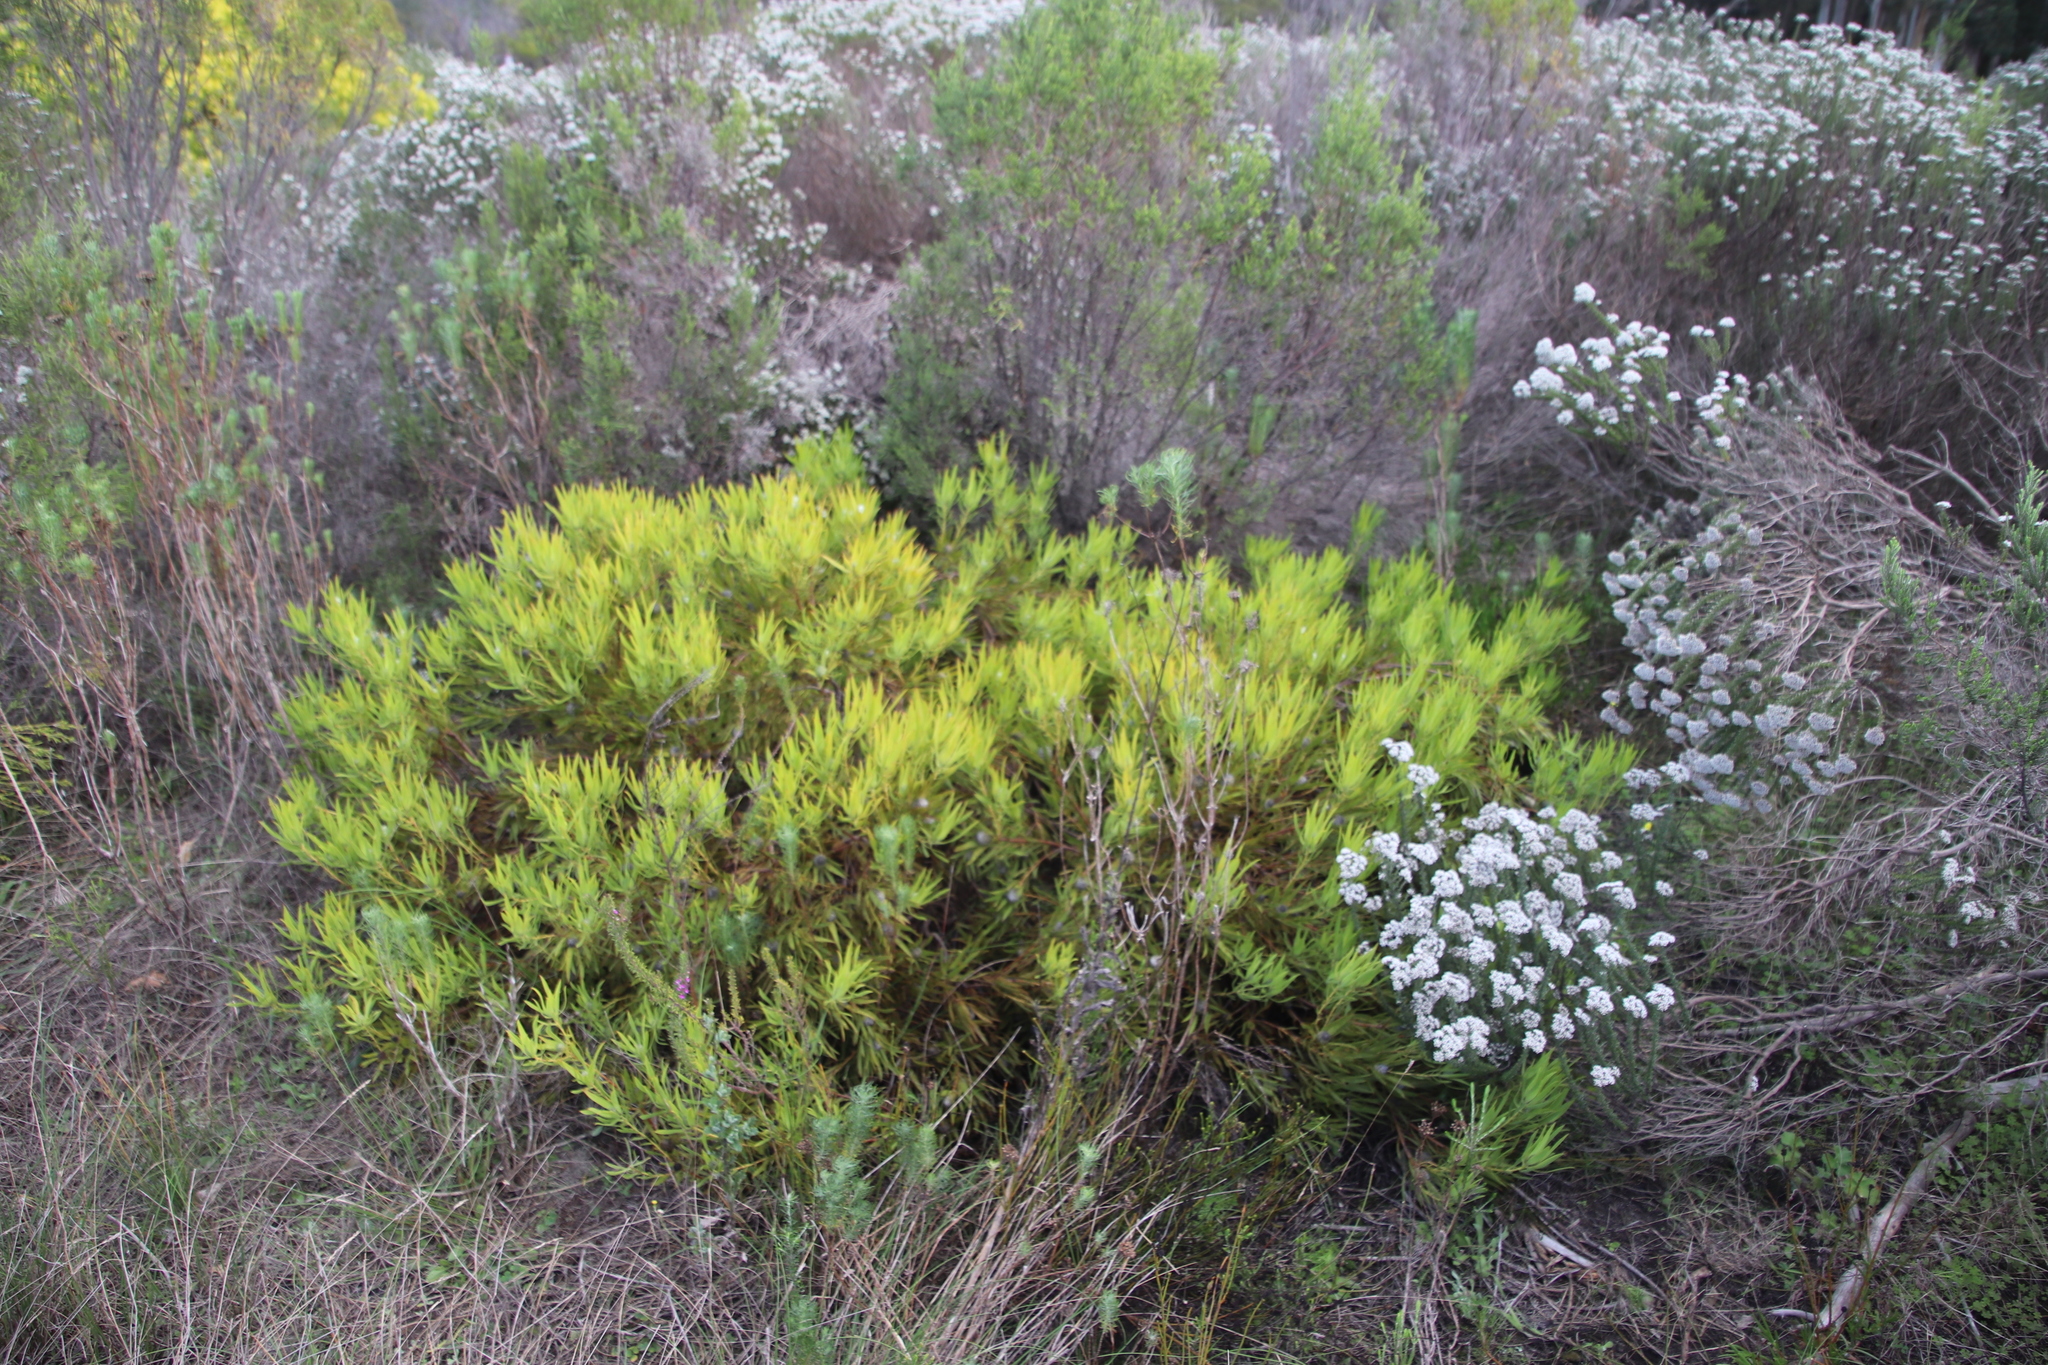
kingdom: Plantae
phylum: Tracheophyta
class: Magnoliopsida
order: Proteales
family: Proteaceae
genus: Leucadendron
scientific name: Leucadendron salignum
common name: Common sunshine conebush
